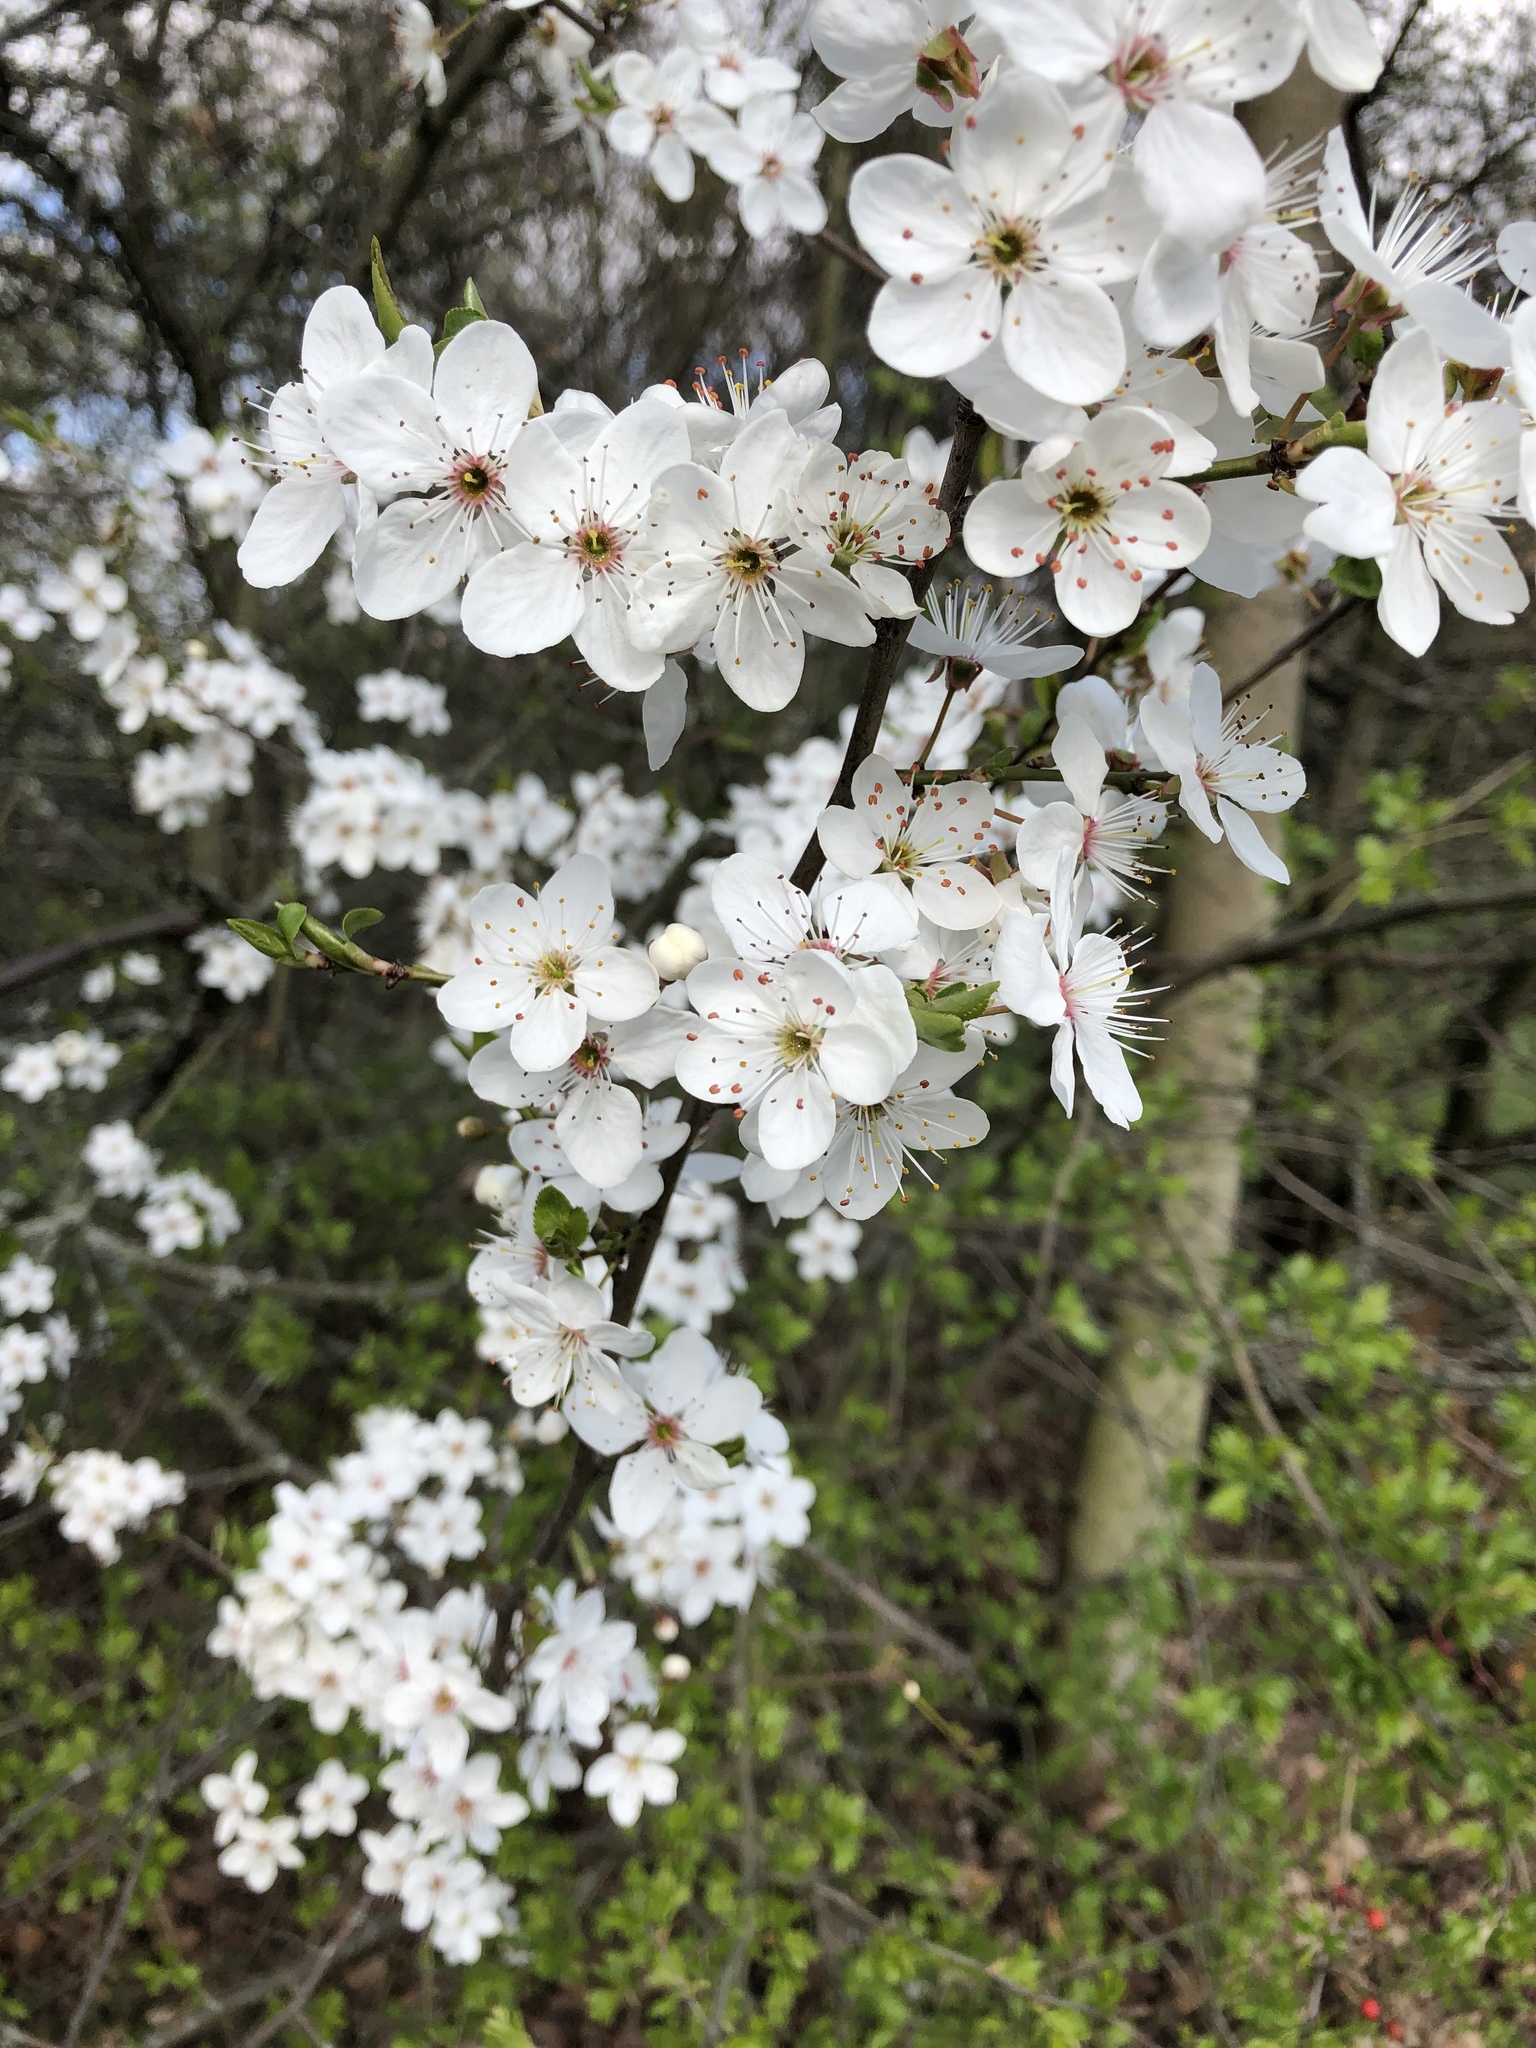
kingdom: Plantae
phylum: Tracheophyta
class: Magnoliopsida
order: Rosales
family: Rosaceae
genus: Prunus
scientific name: Prunus cerasifera
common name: Cherry plum
